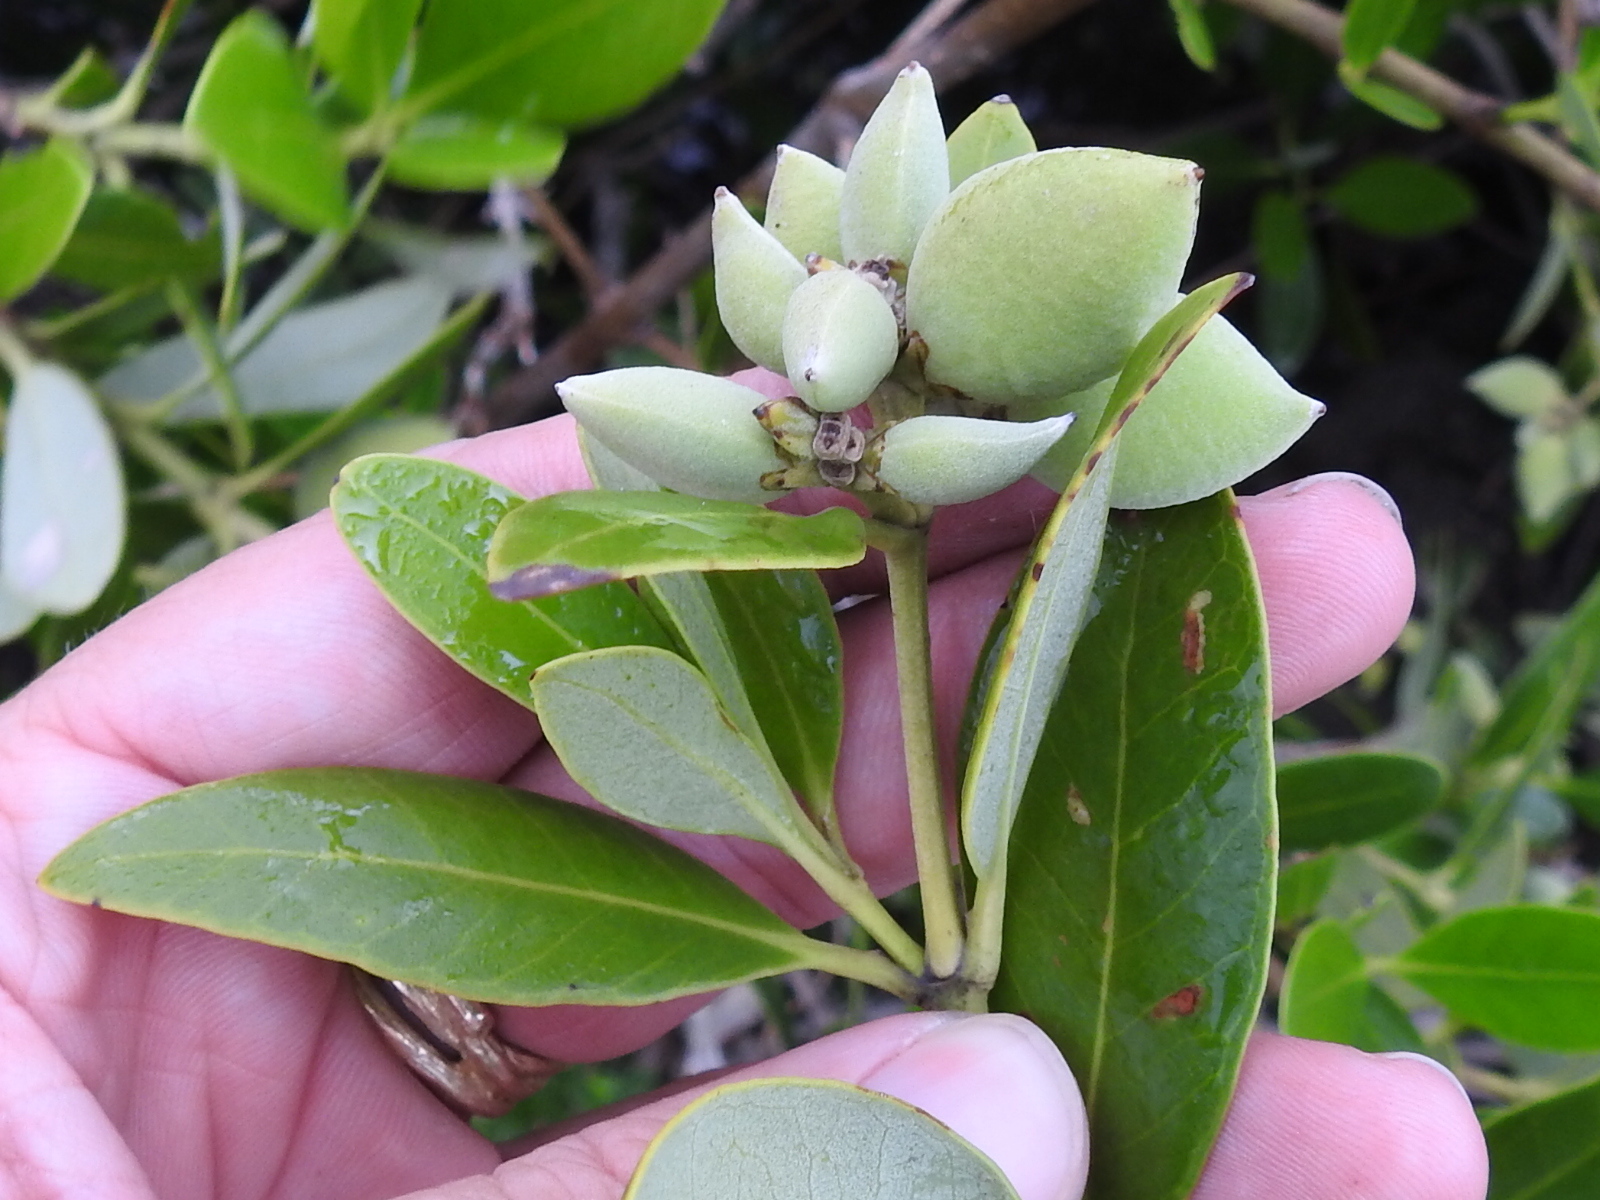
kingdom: Plantae
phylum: Tracheophyta
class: Magnoliopsida
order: Lamiales
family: Acanthaceae
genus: Avicennia
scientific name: Avicennia germinans
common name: Black mangrove
